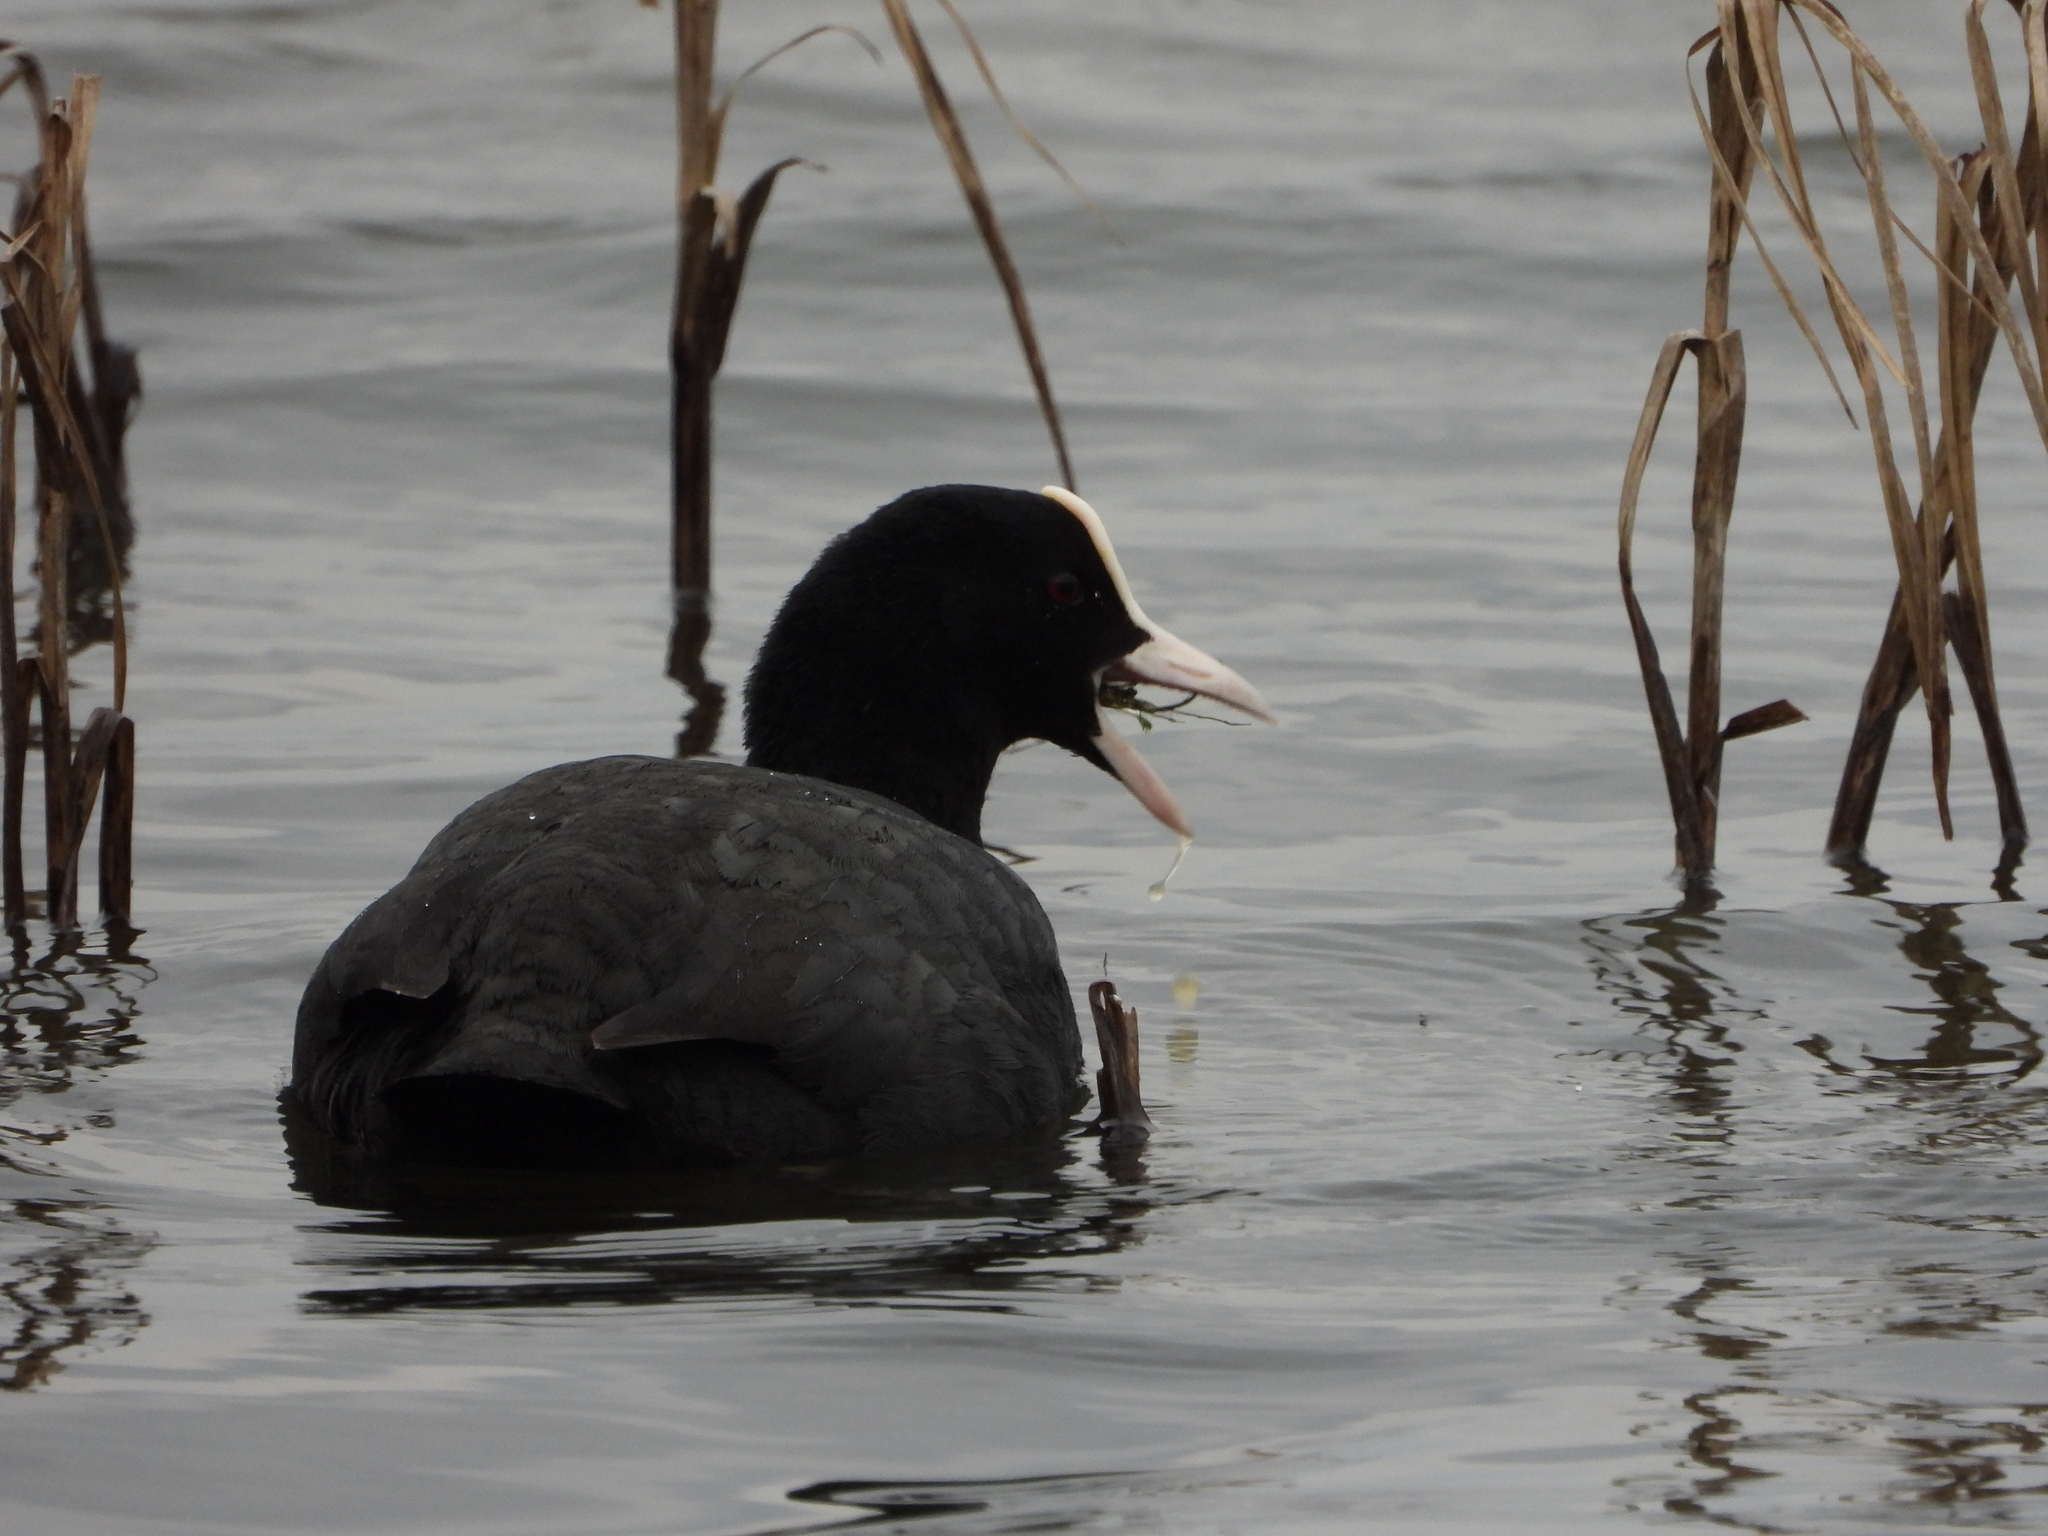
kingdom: Animalia
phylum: Chordata
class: Aves
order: Gruiformes
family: Rallidae
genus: Fulica
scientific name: Fulica atra
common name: Eurasian coot
